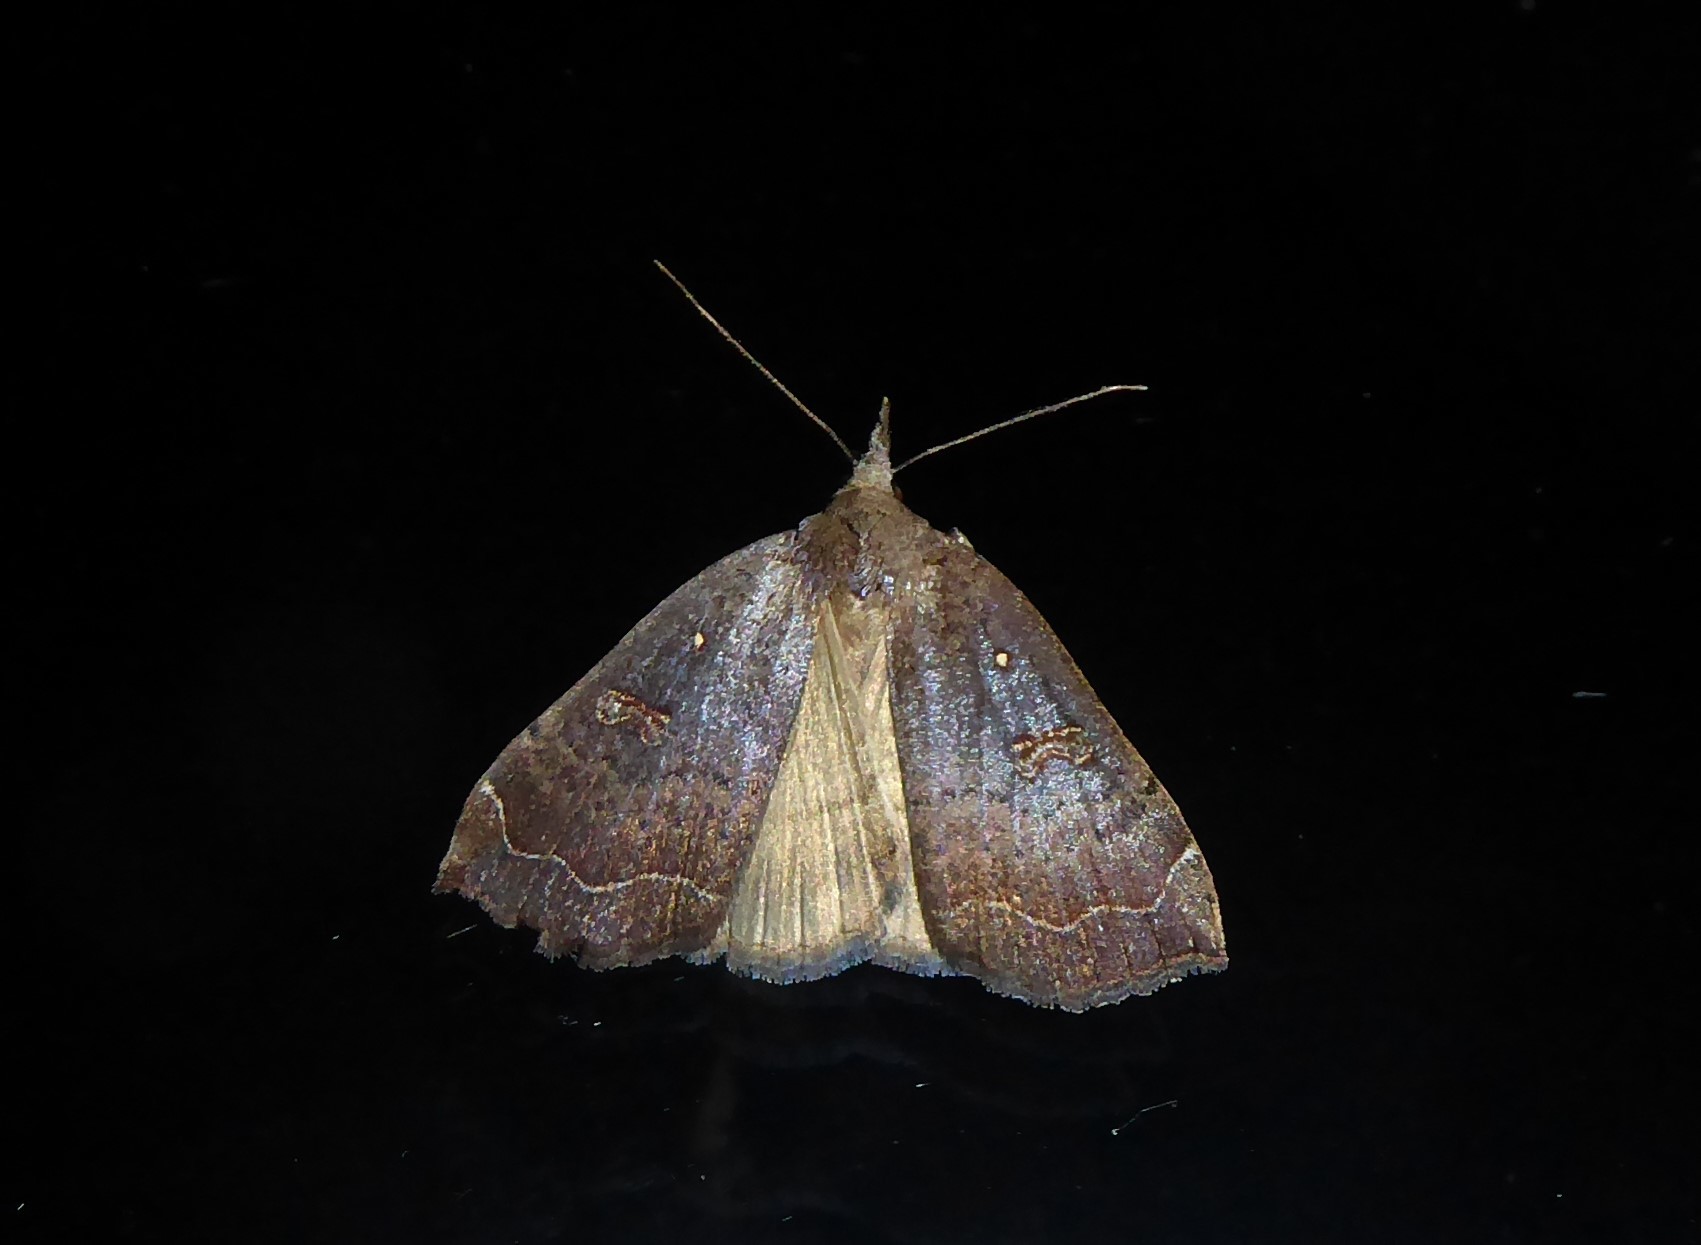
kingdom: Animalia
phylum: Arthropoda
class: Insecta
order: Lepidoptera
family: Erebidae
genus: Rhapsa
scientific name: Rhapsa scotosialis
